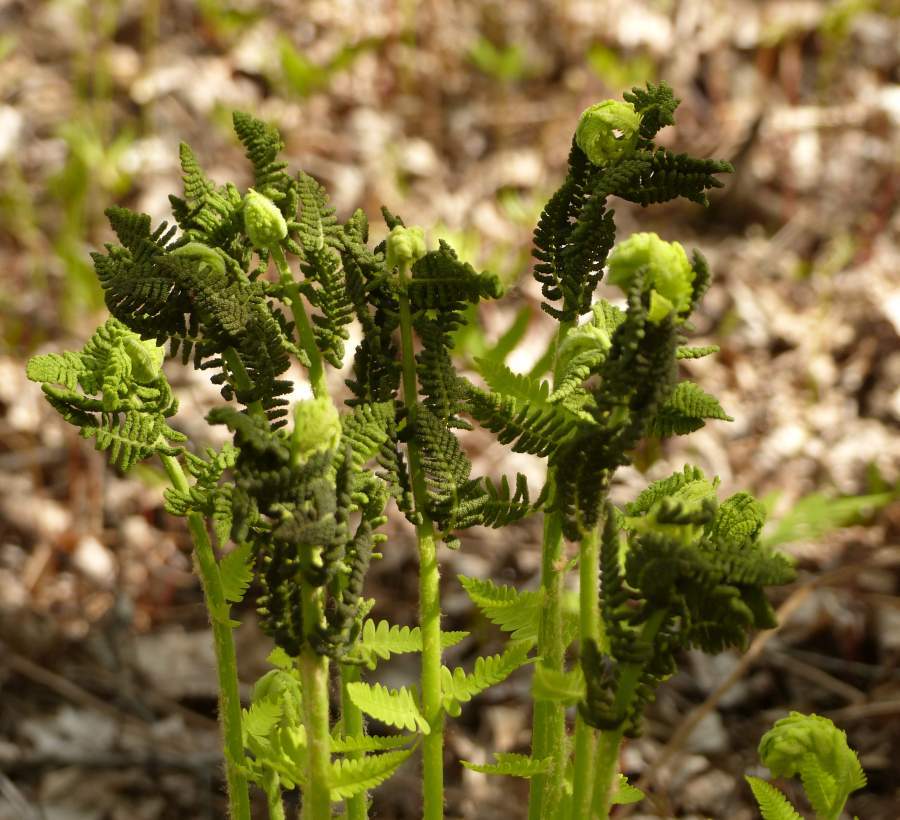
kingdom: Plantae
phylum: Tracheophyta
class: Polypodiopsida
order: Osmundales
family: Osmundaceae
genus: Claytosmunda
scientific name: Claytosmunda claytoniana
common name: Clayton's fern
